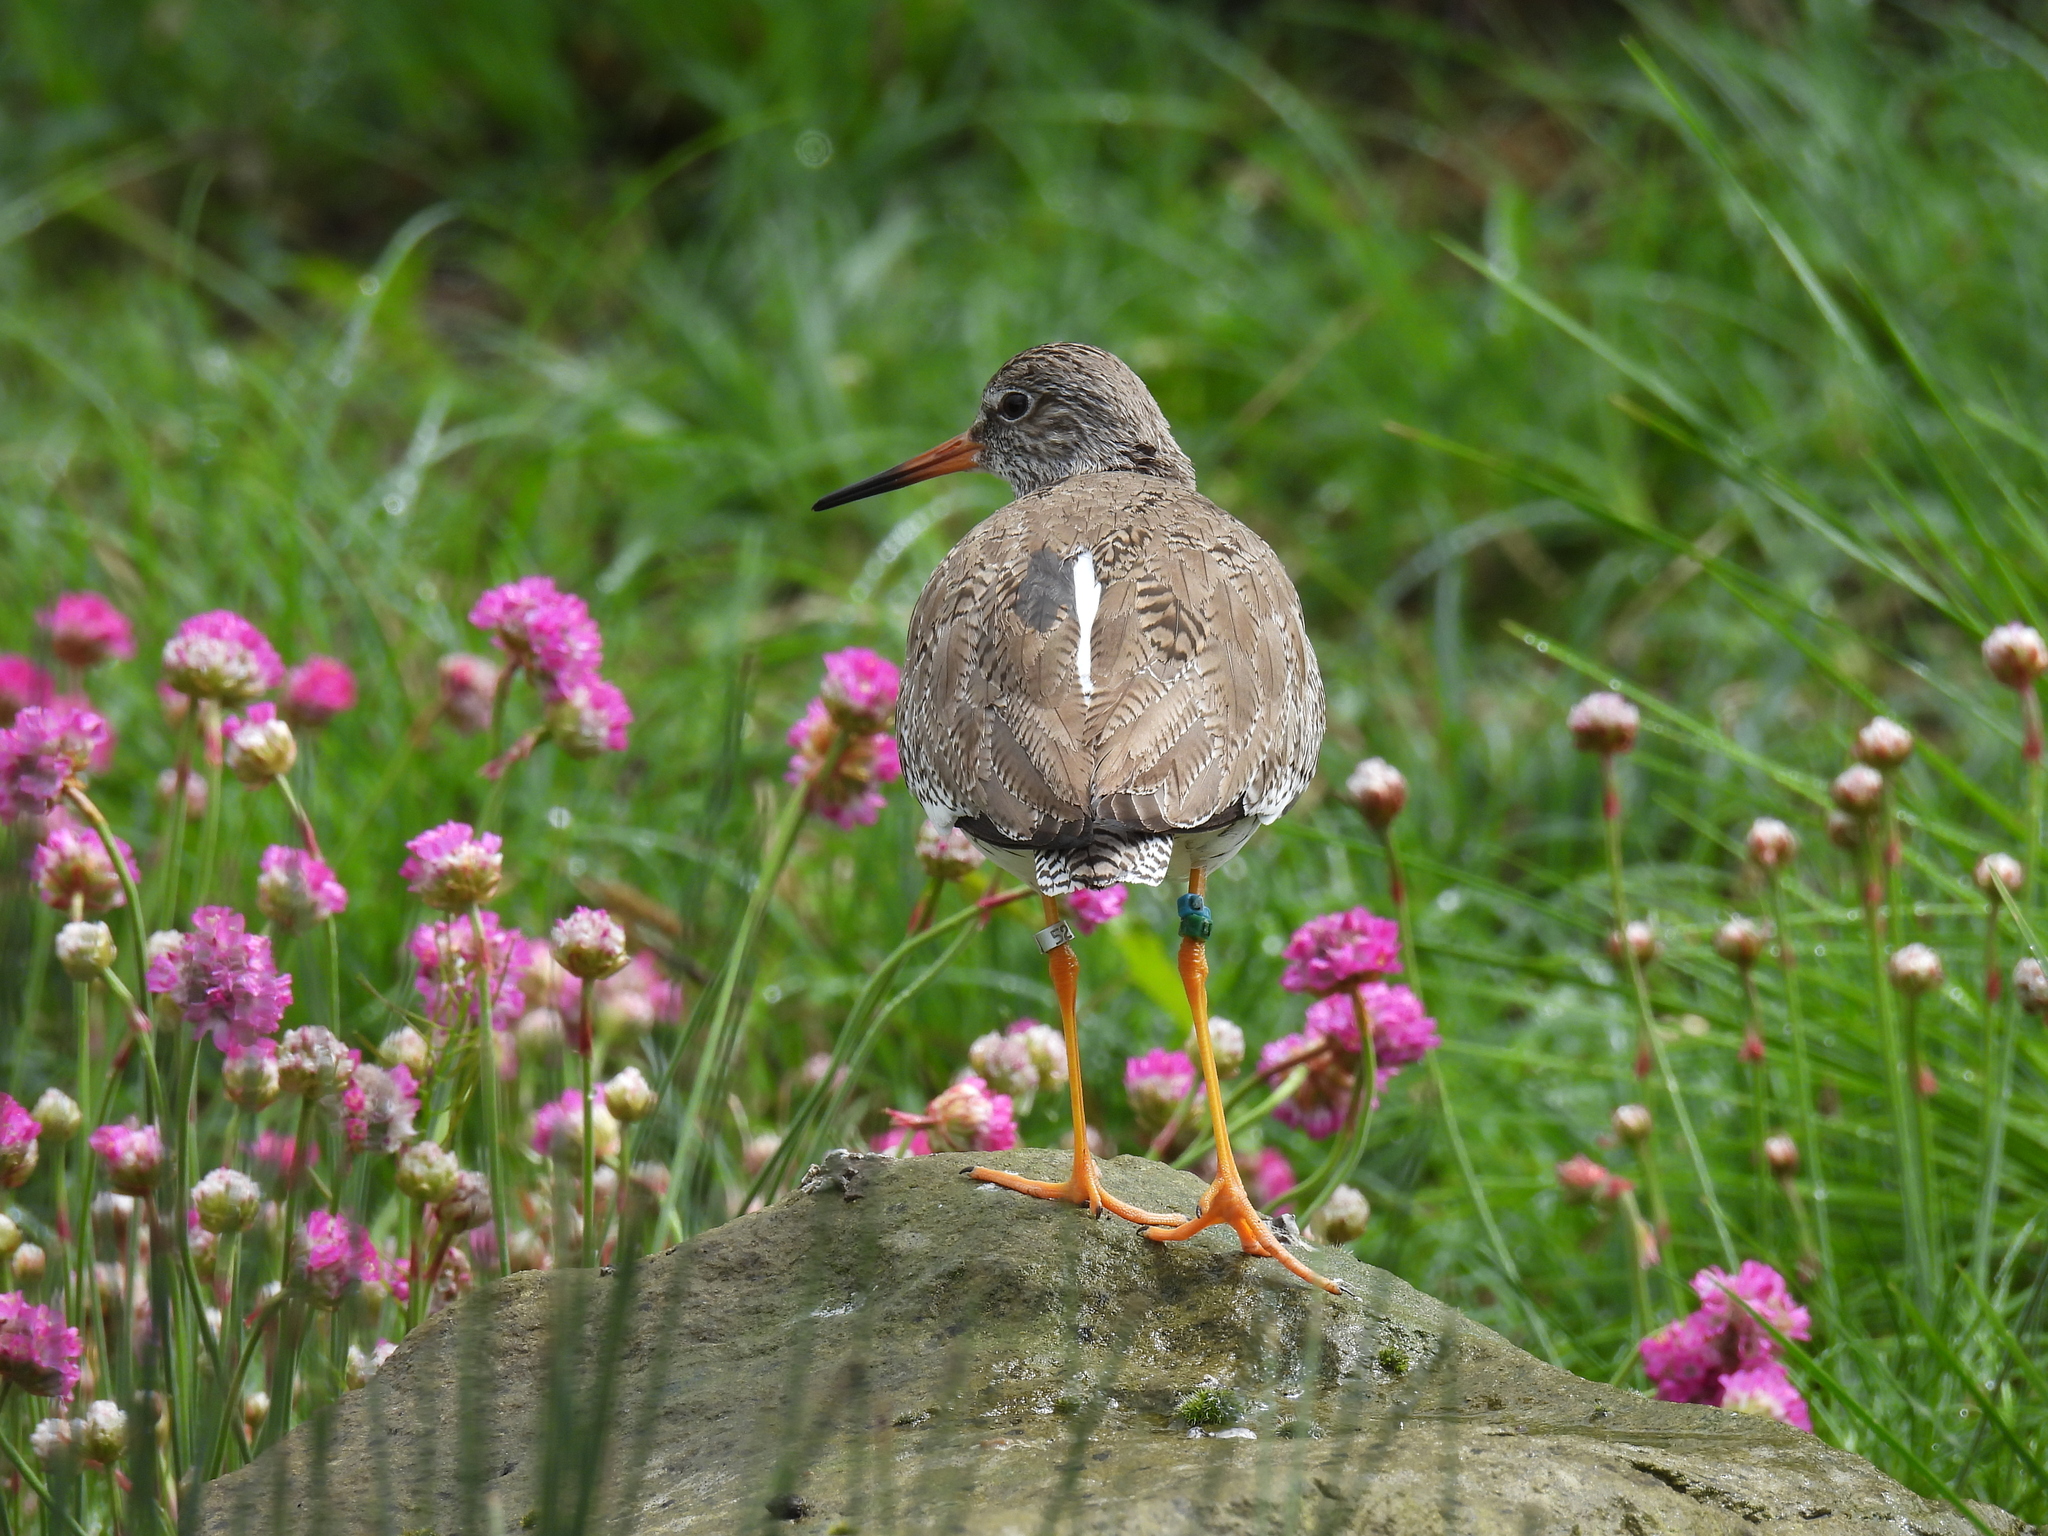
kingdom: Animalia
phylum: Chordata
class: Aves
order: Charadriiformes
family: Scolopacidae
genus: Tringa
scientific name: Tringa totanus
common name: Common redshank
